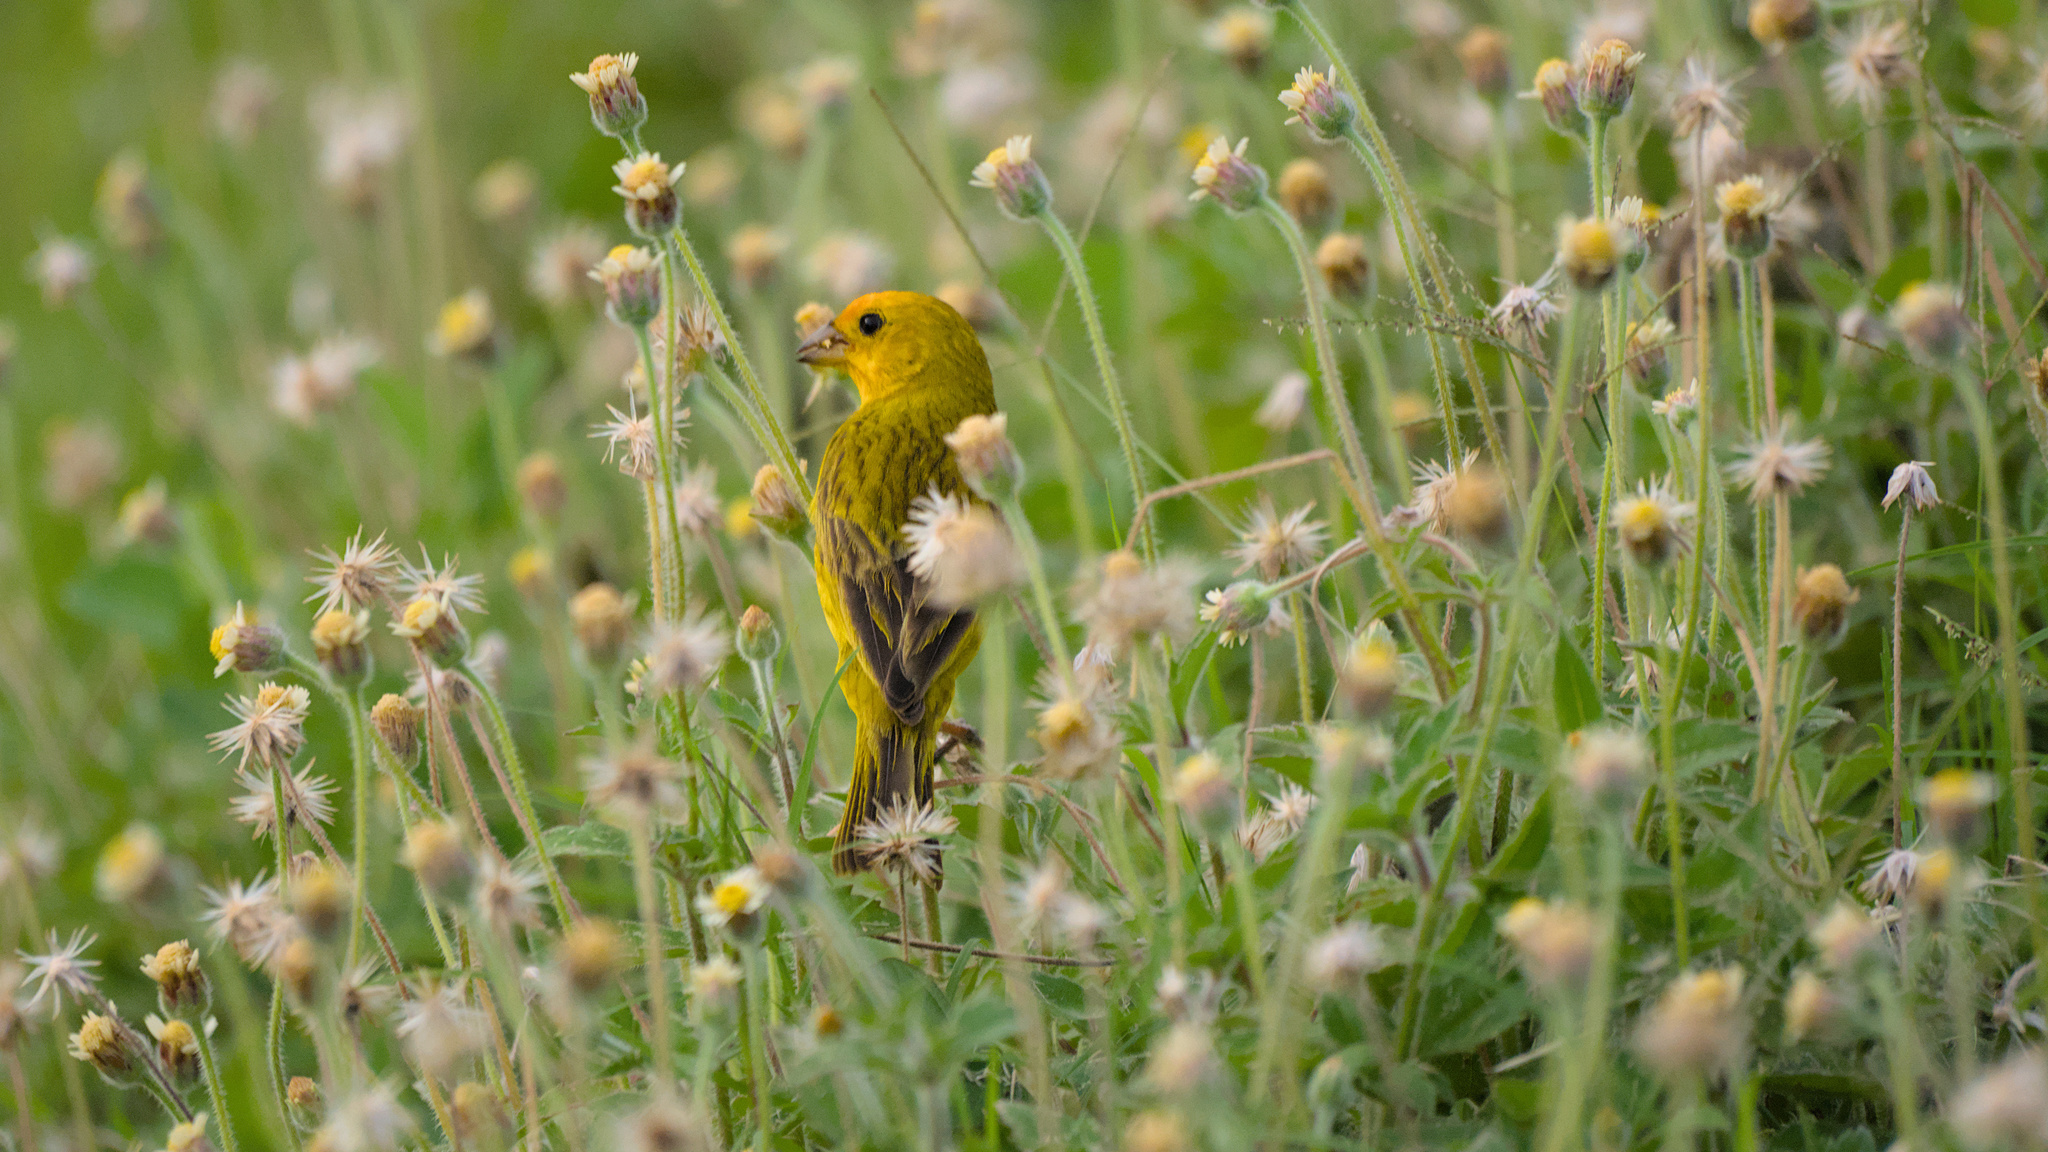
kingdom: Animalia
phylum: Chordata
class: Aves
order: Passeriformes
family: Thraupidae
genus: Sicalis
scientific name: Sicalis flaveola
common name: Saffron finch
